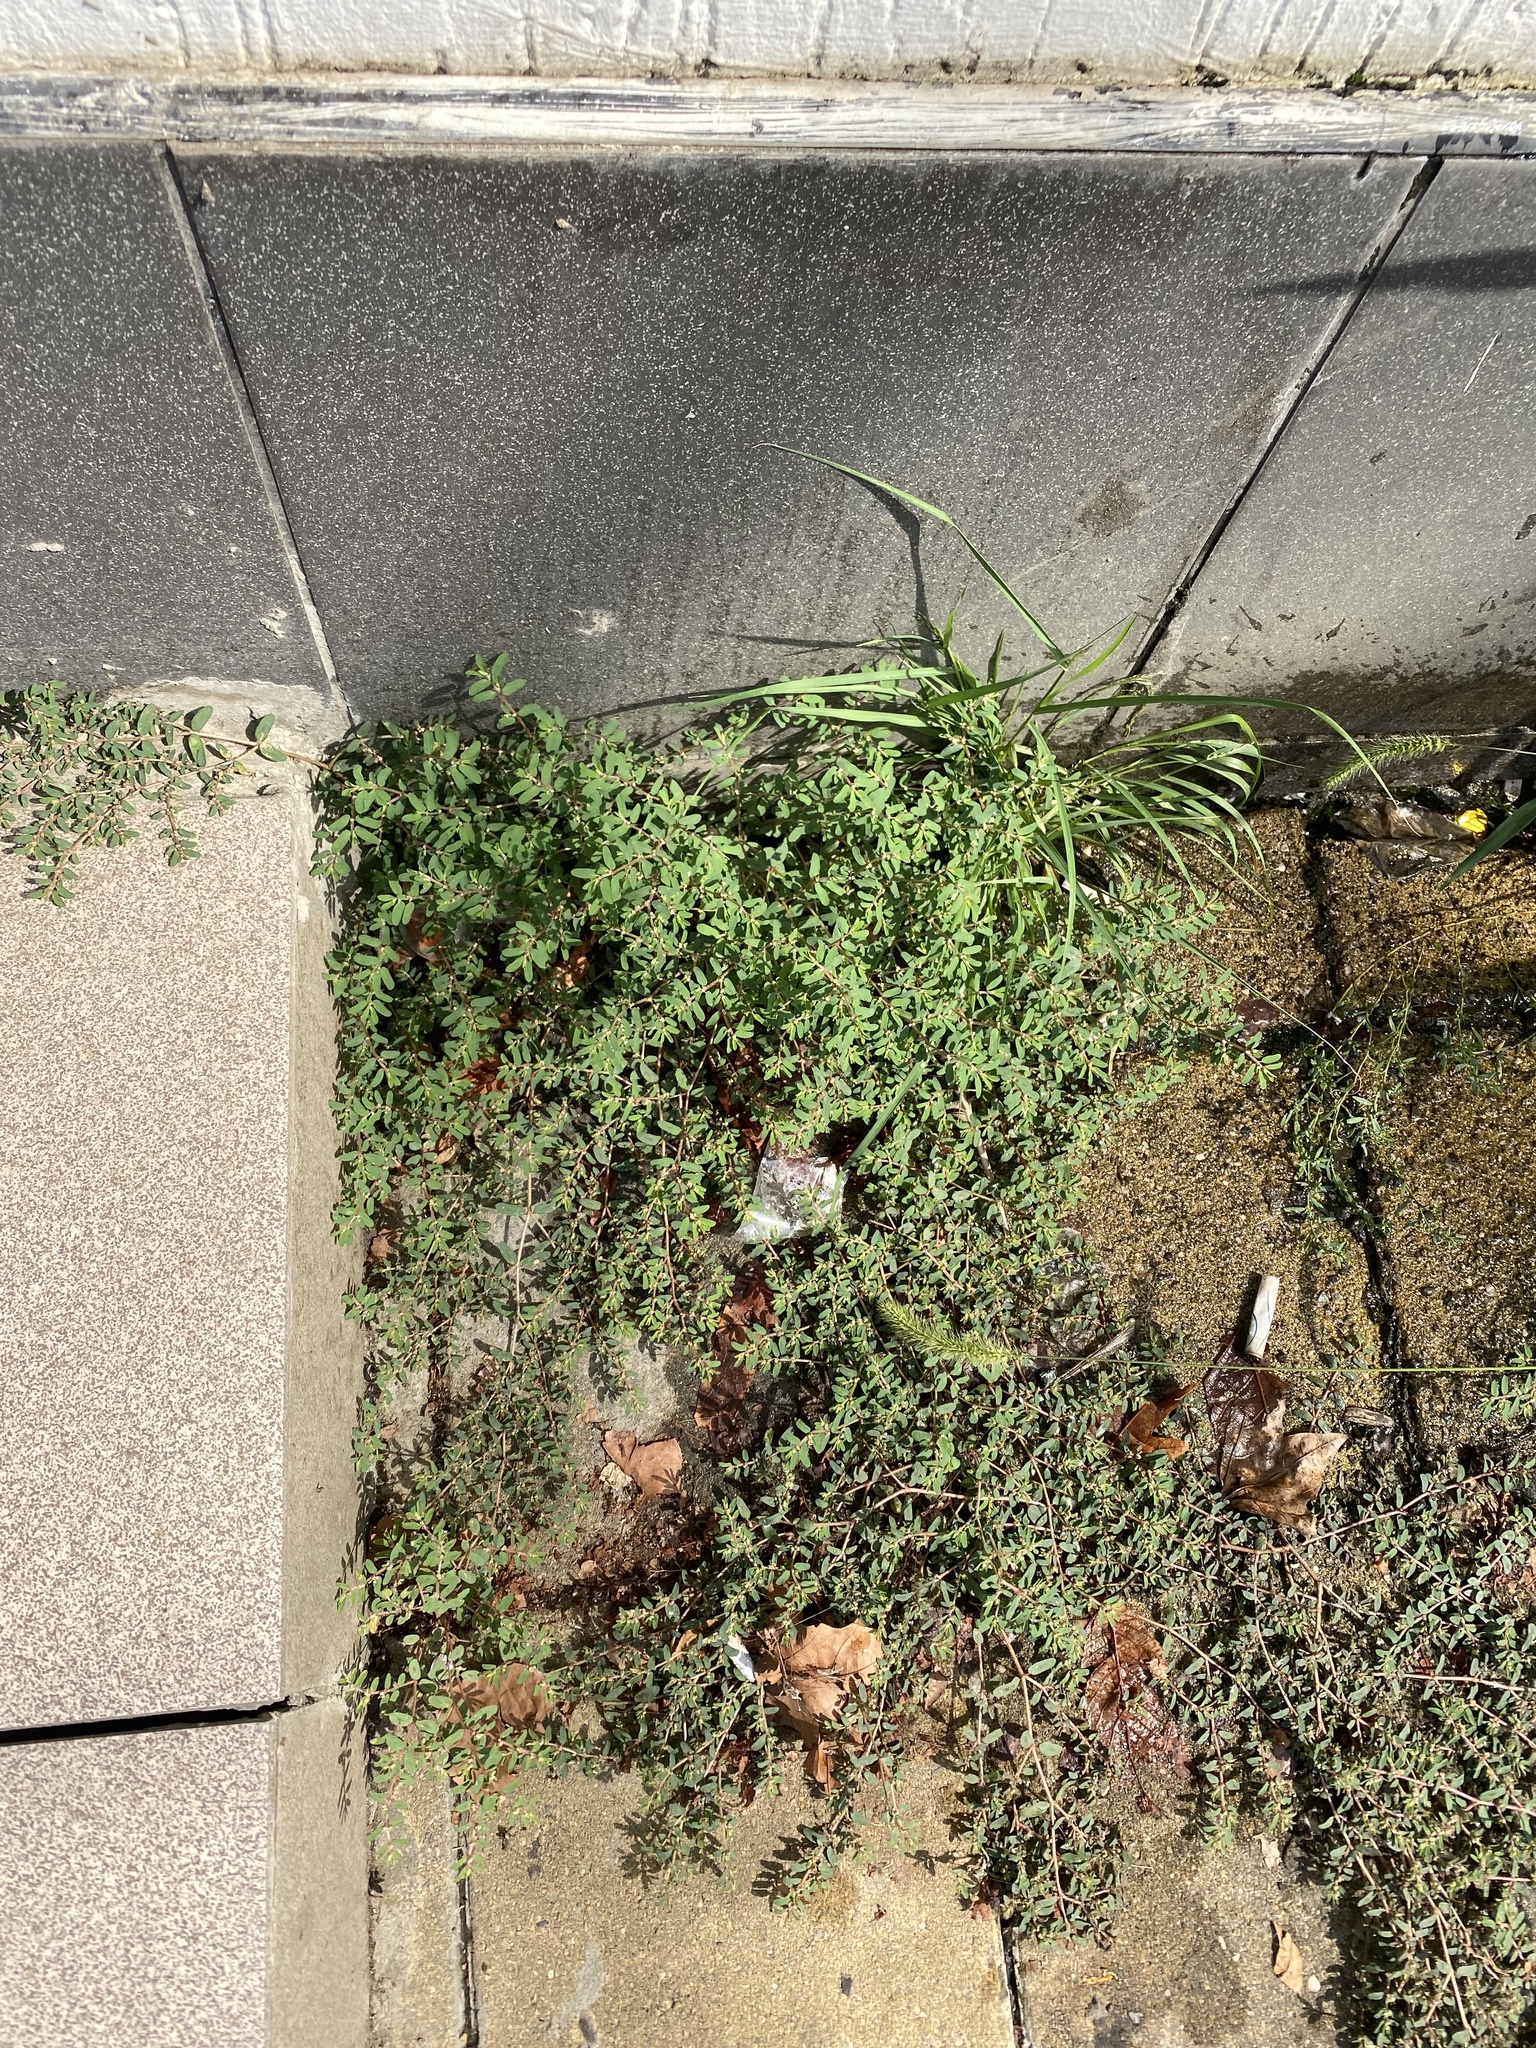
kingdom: Plantae
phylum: Tracheophyta
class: Magnoliopsida
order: Malpighiales
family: Euphorbiaceae
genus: Euphorbia
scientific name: Euphorbia maculata
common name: Spotted spurge
